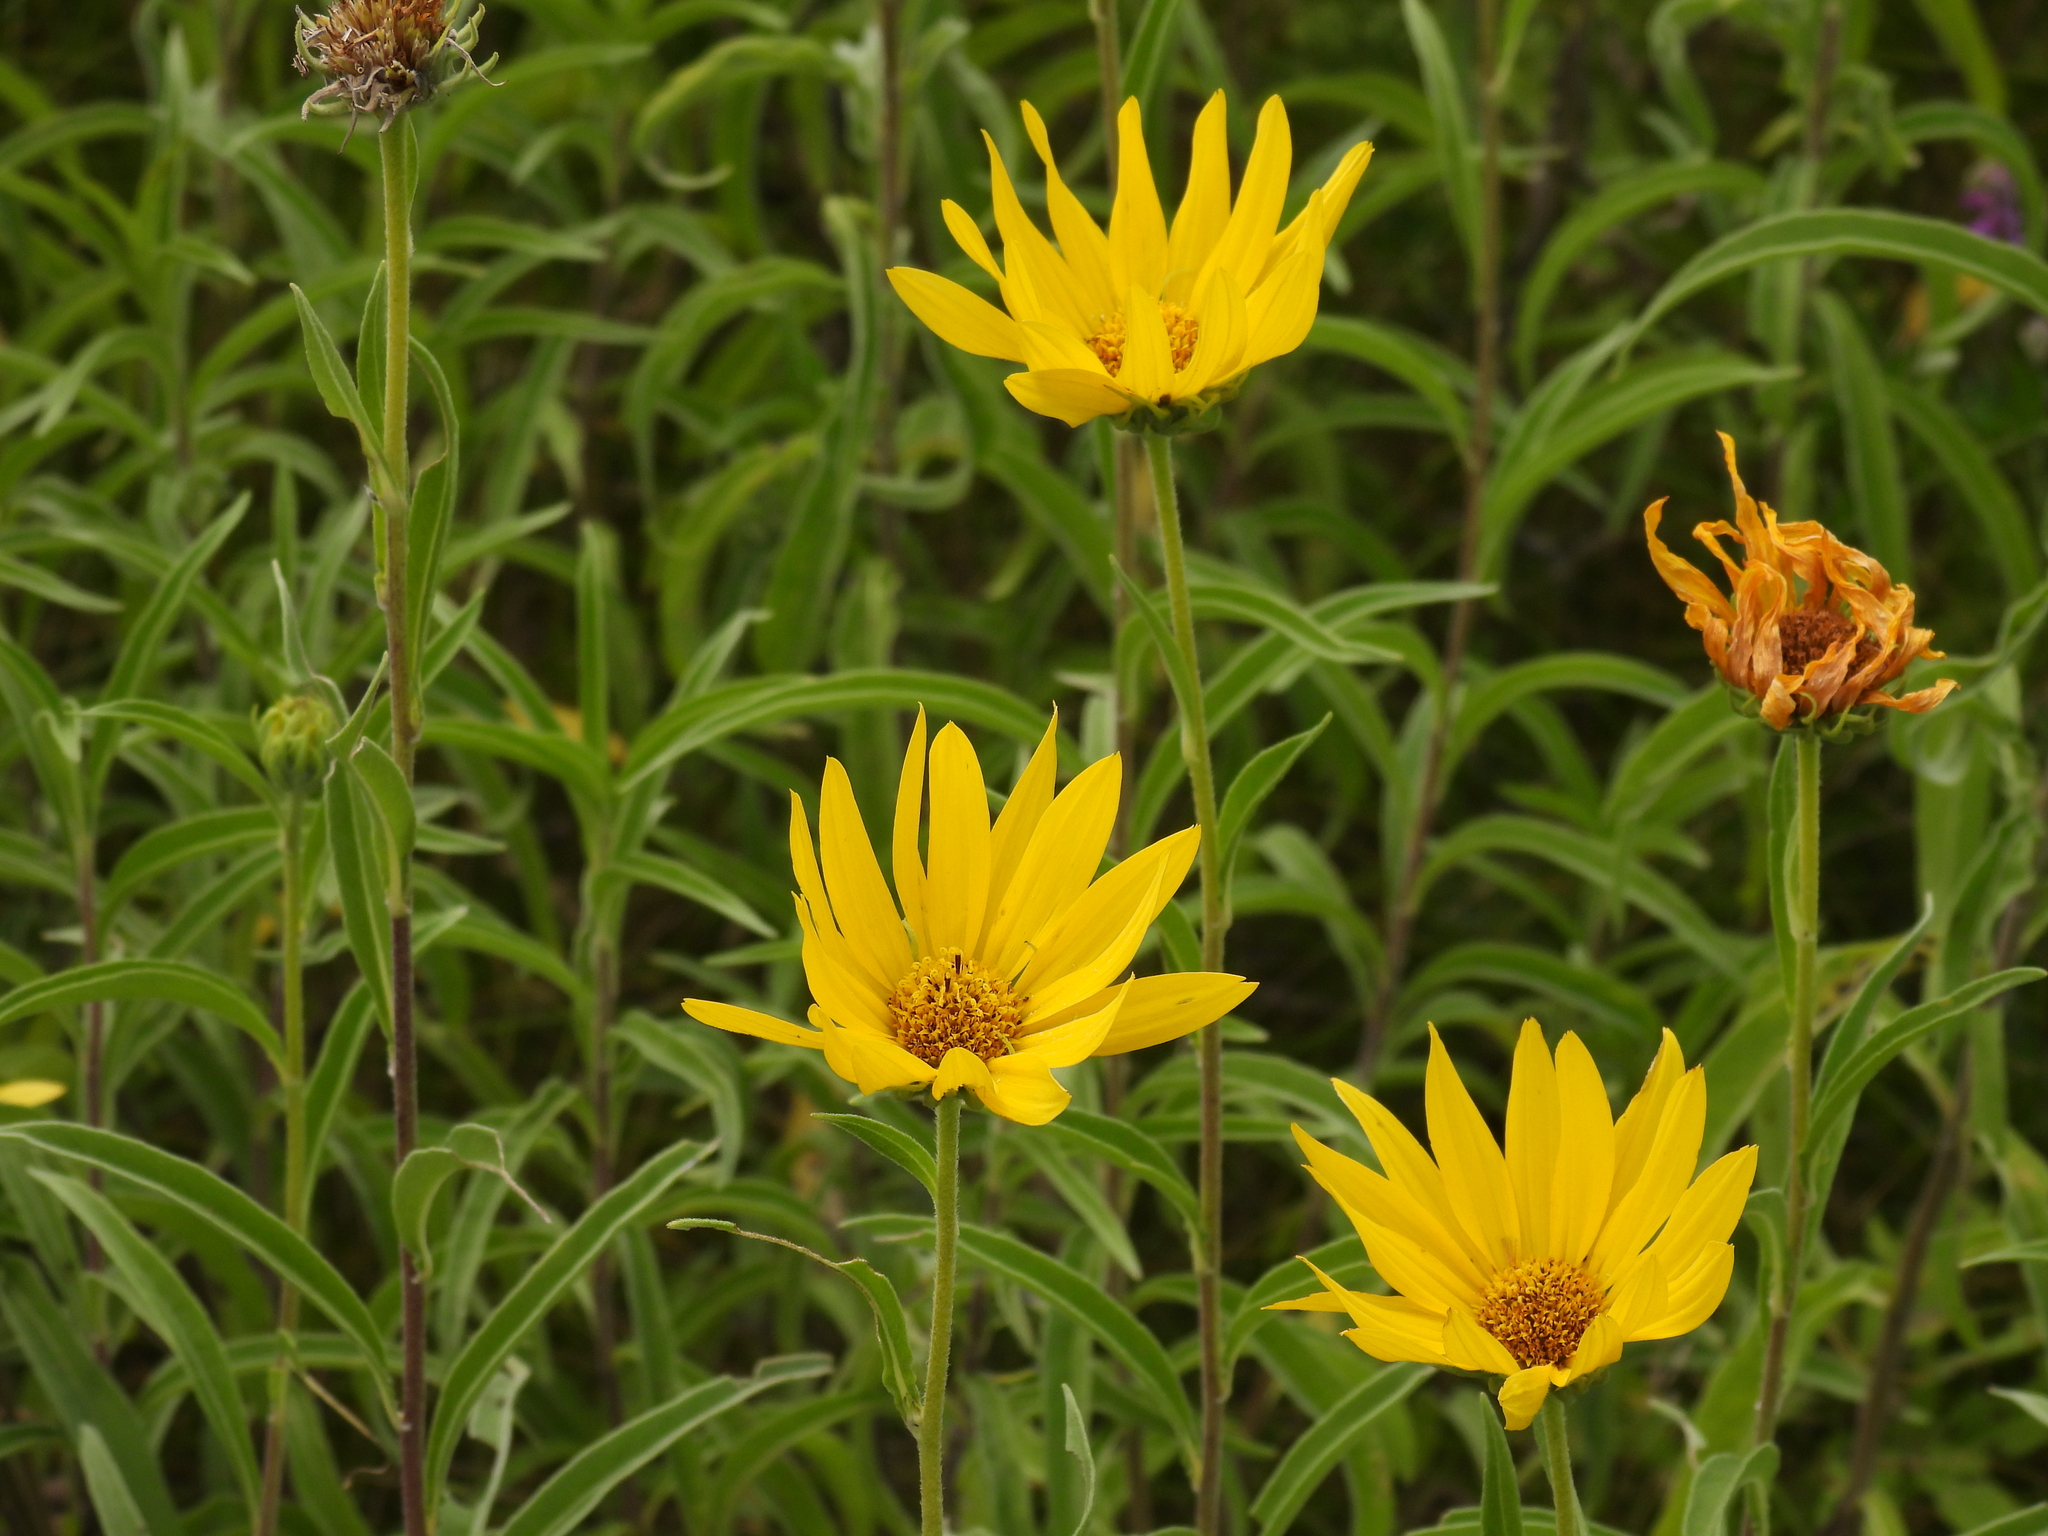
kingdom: Plantae
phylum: Tracheophyta
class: Magnoliopsida
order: Asterales
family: Asteraceae
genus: Helianthus
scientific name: Helianthus maximiliani
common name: Maximilian's sunflower
